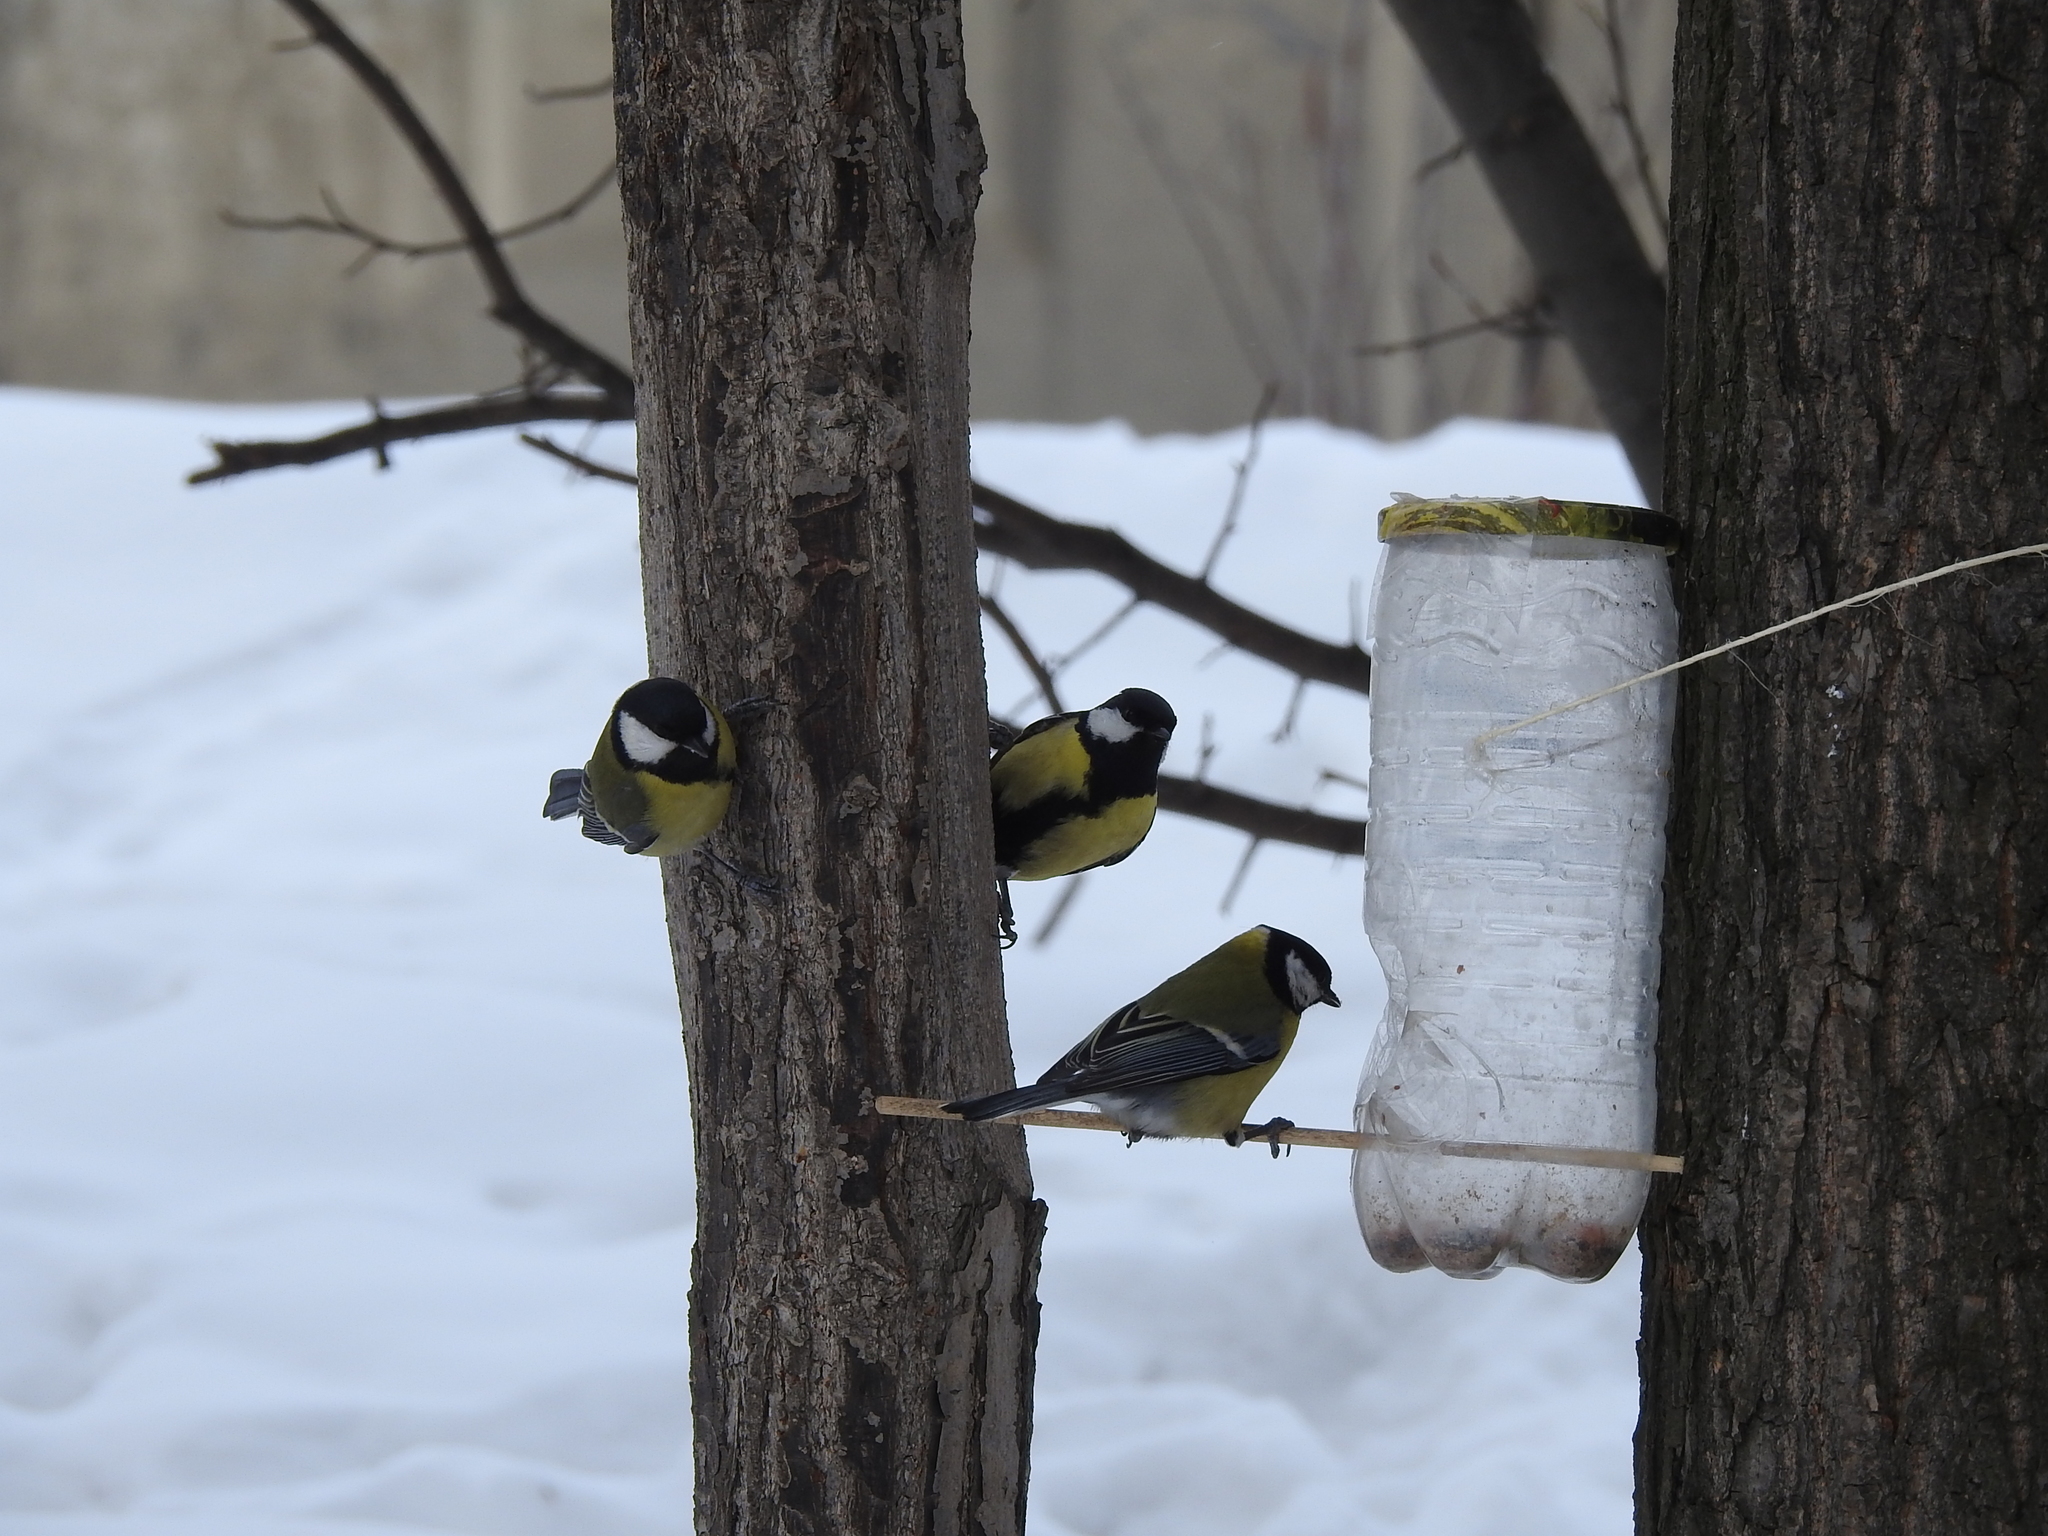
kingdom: Animalia
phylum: Chordata
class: Aves
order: Passeriformes
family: Paridae
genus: Parus
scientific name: Parus major
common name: Great tit
